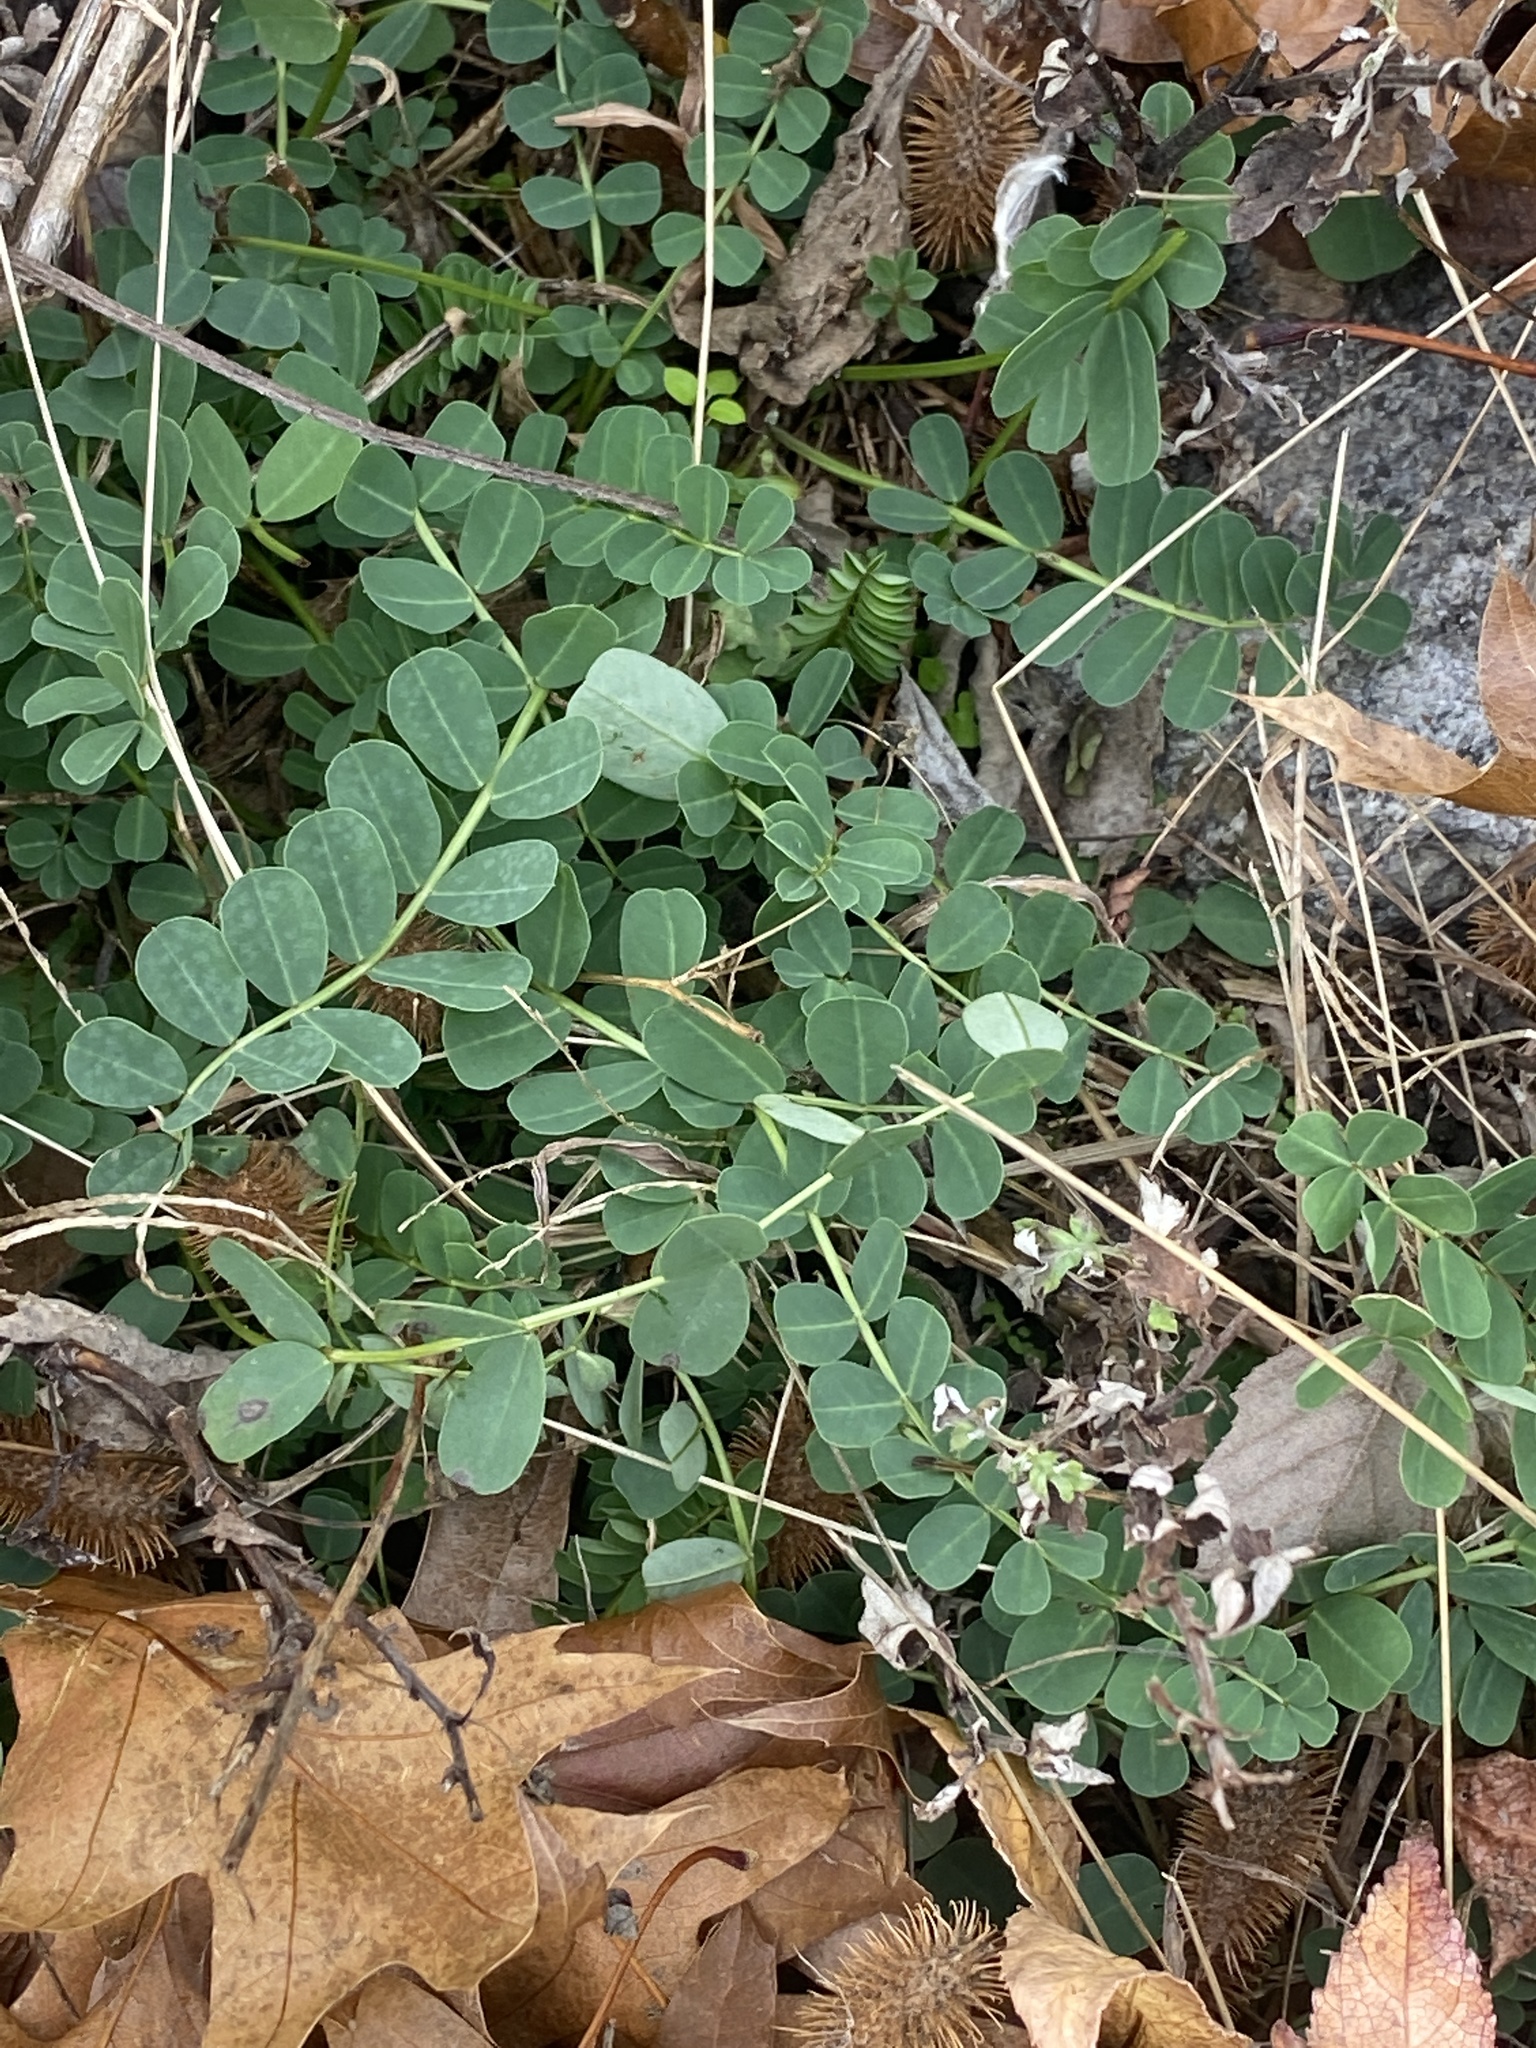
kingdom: Plantae
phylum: Tracheophyta
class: Magnoliopsida
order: Fabales
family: Fabaceae
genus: Coronilla
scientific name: Coronilla varia
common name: Crownvetch
